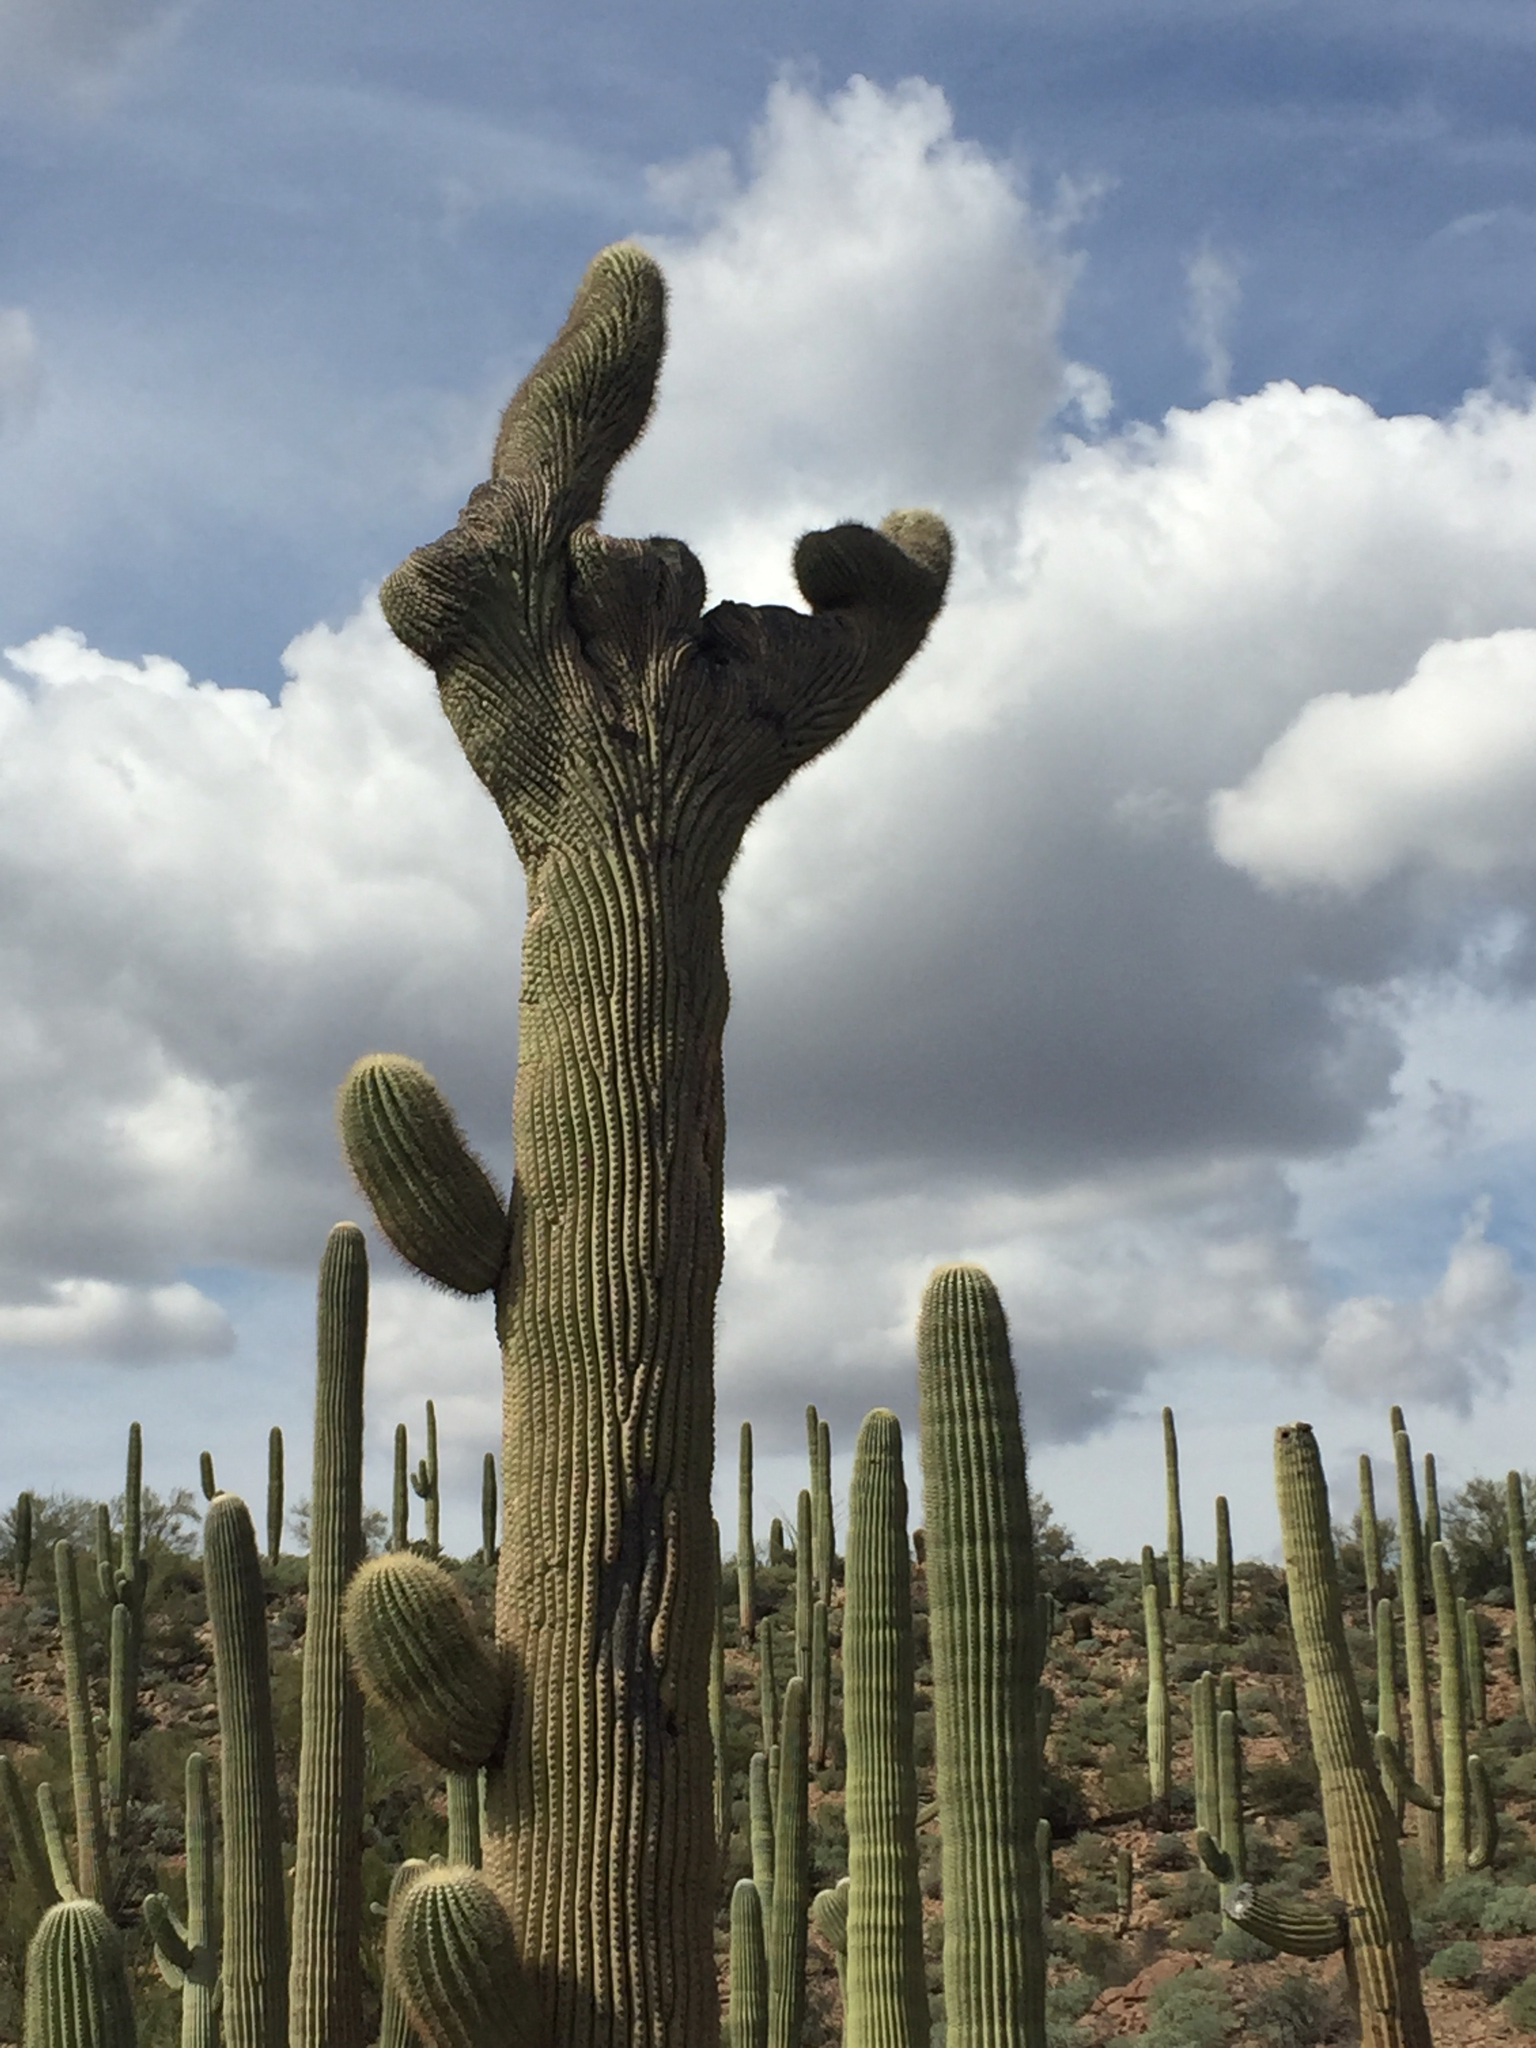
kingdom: Plantae
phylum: Tracheophyta
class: Magnoliopsida
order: Caryophyllales
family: Cactaceae
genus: Carnegiea
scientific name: Carnegiea gigantea
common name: Saguaro
